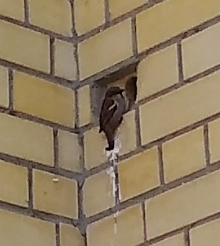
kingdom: Animalia
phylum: Chordata
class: Aves
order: Passeriformes
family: Passeridae
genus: Passer
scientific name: Passer domesticus
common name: House sparrow
